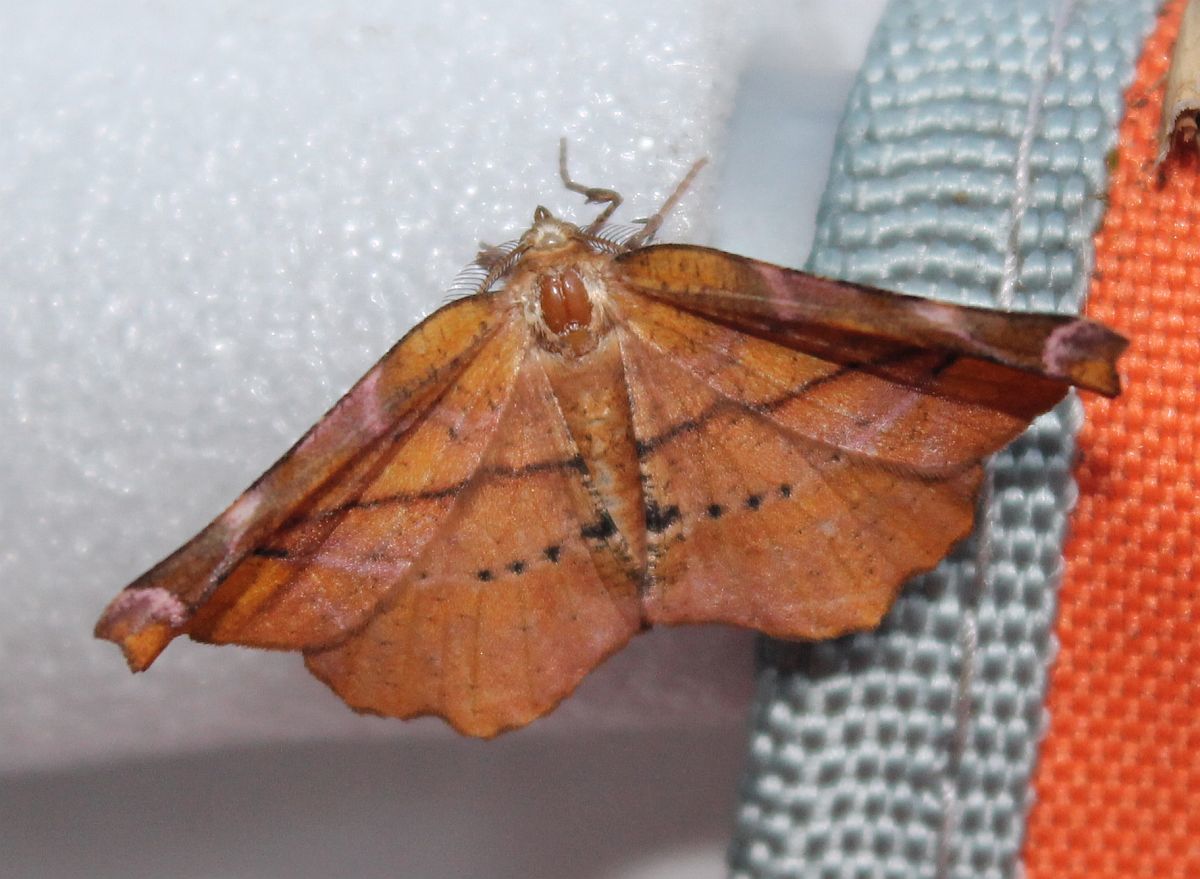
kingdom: Animalia
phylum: Arthropoda
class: Insecta
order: Lepidoptera
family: Geometridae
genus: Apeira
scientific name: Apeira syringaria
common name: Lilac beauty
